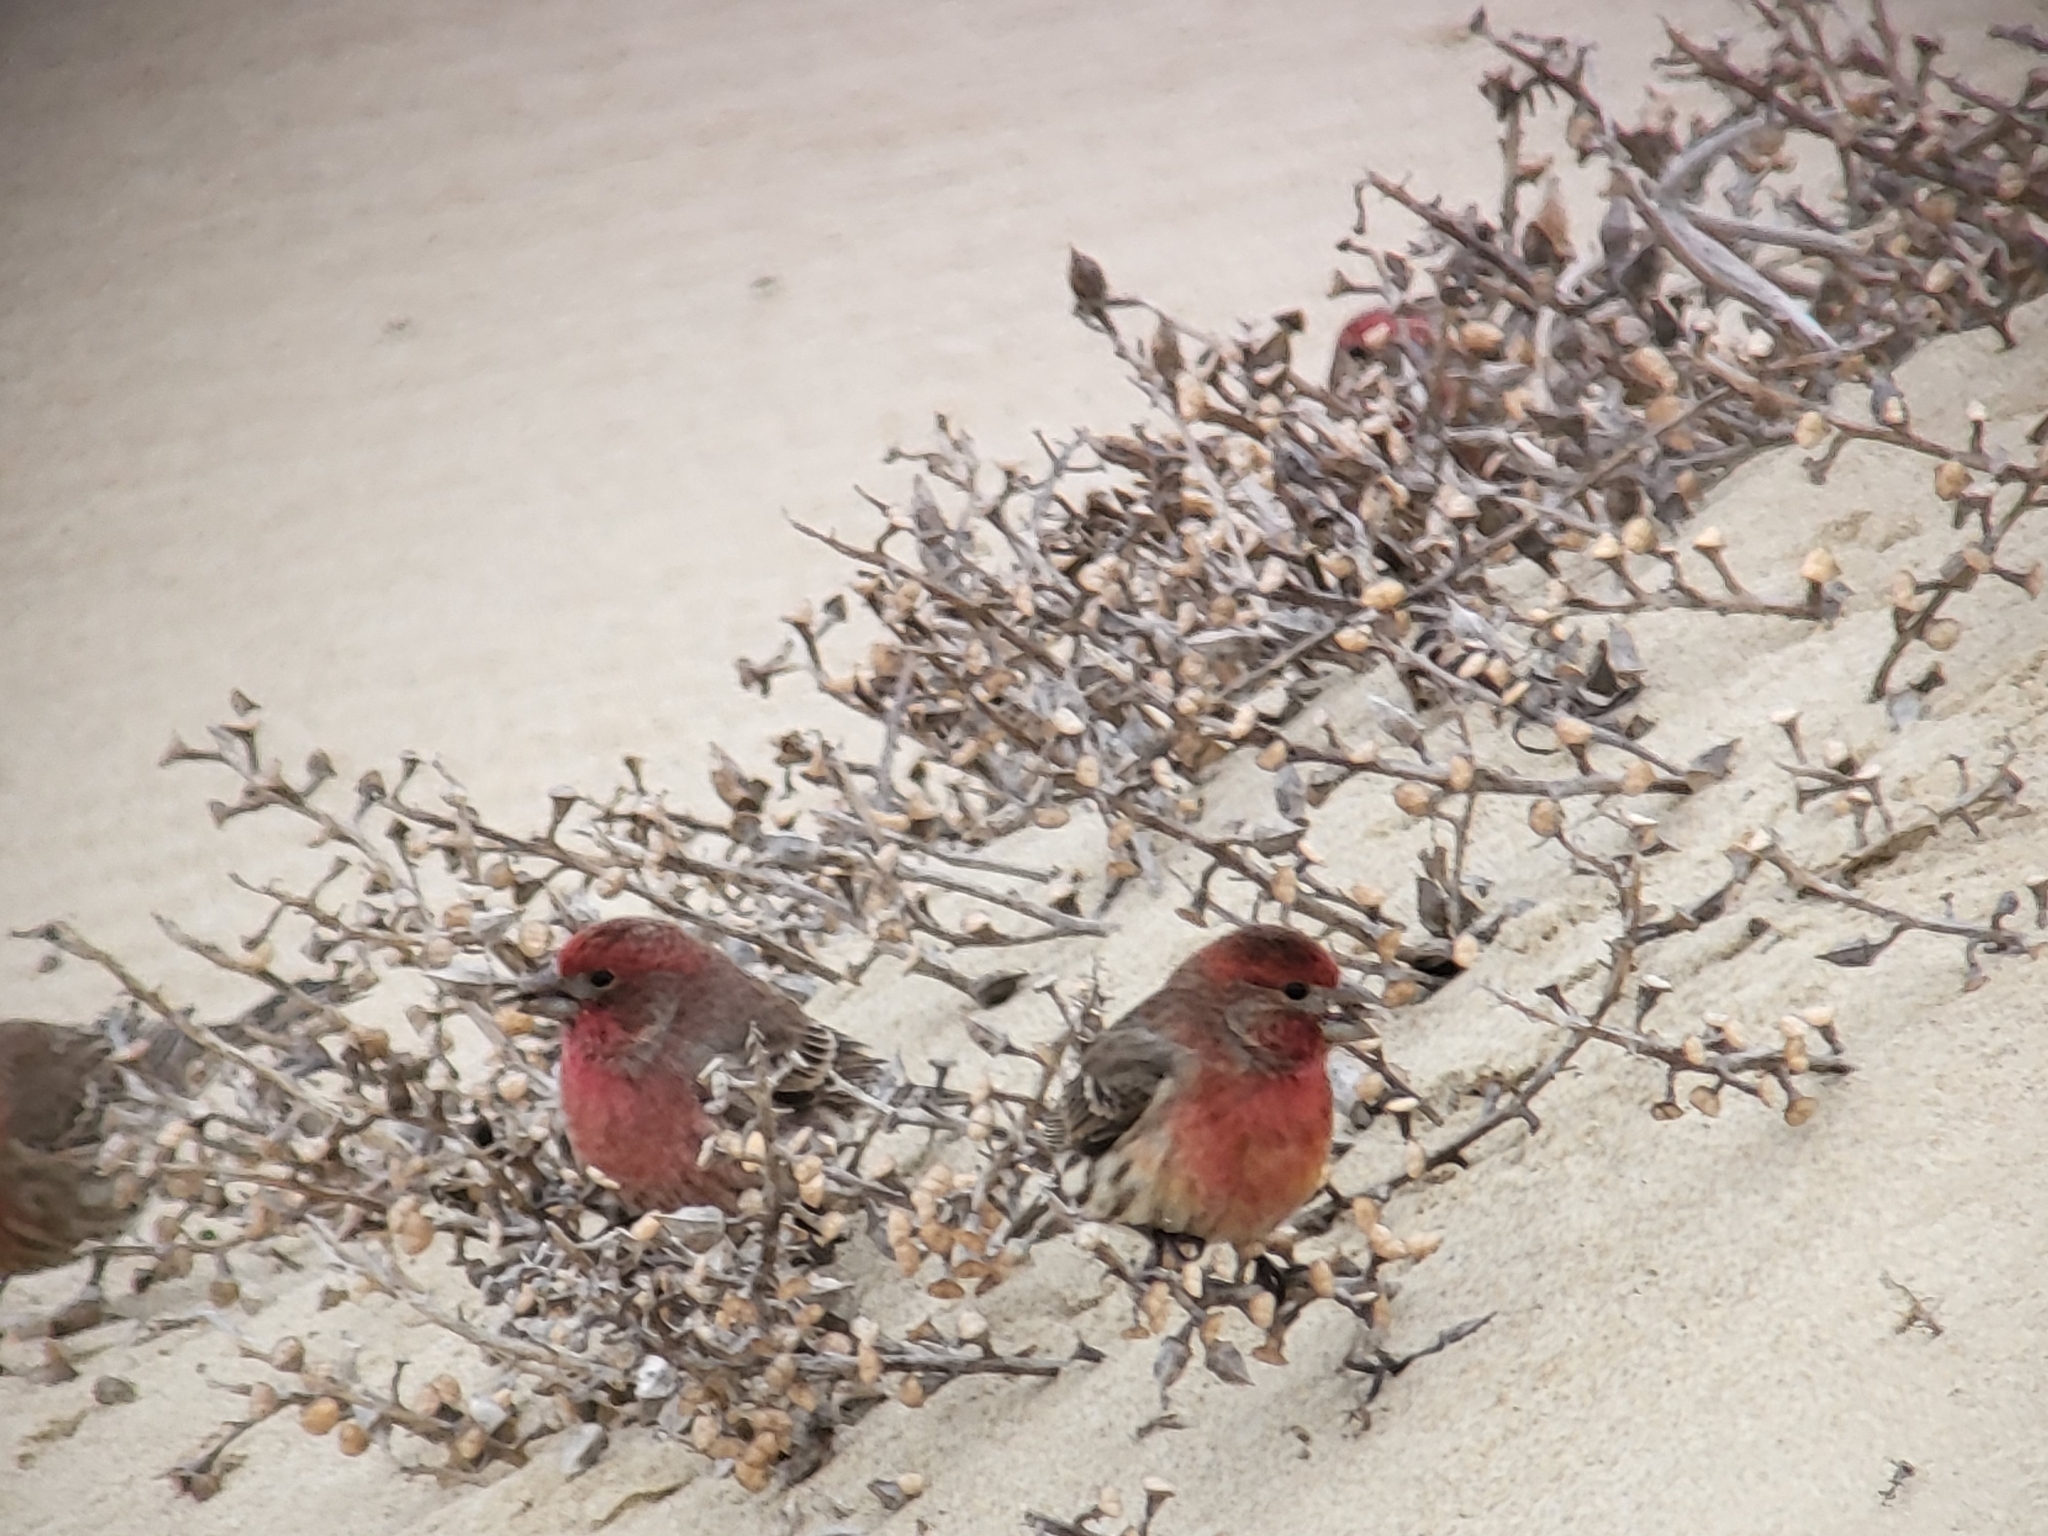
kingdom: Animalia
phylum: Chordata
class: Aves
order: Passeriformes
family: Fringillidae
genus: Haemorhous
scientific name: Haemorhous mexicanus
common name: House finch
